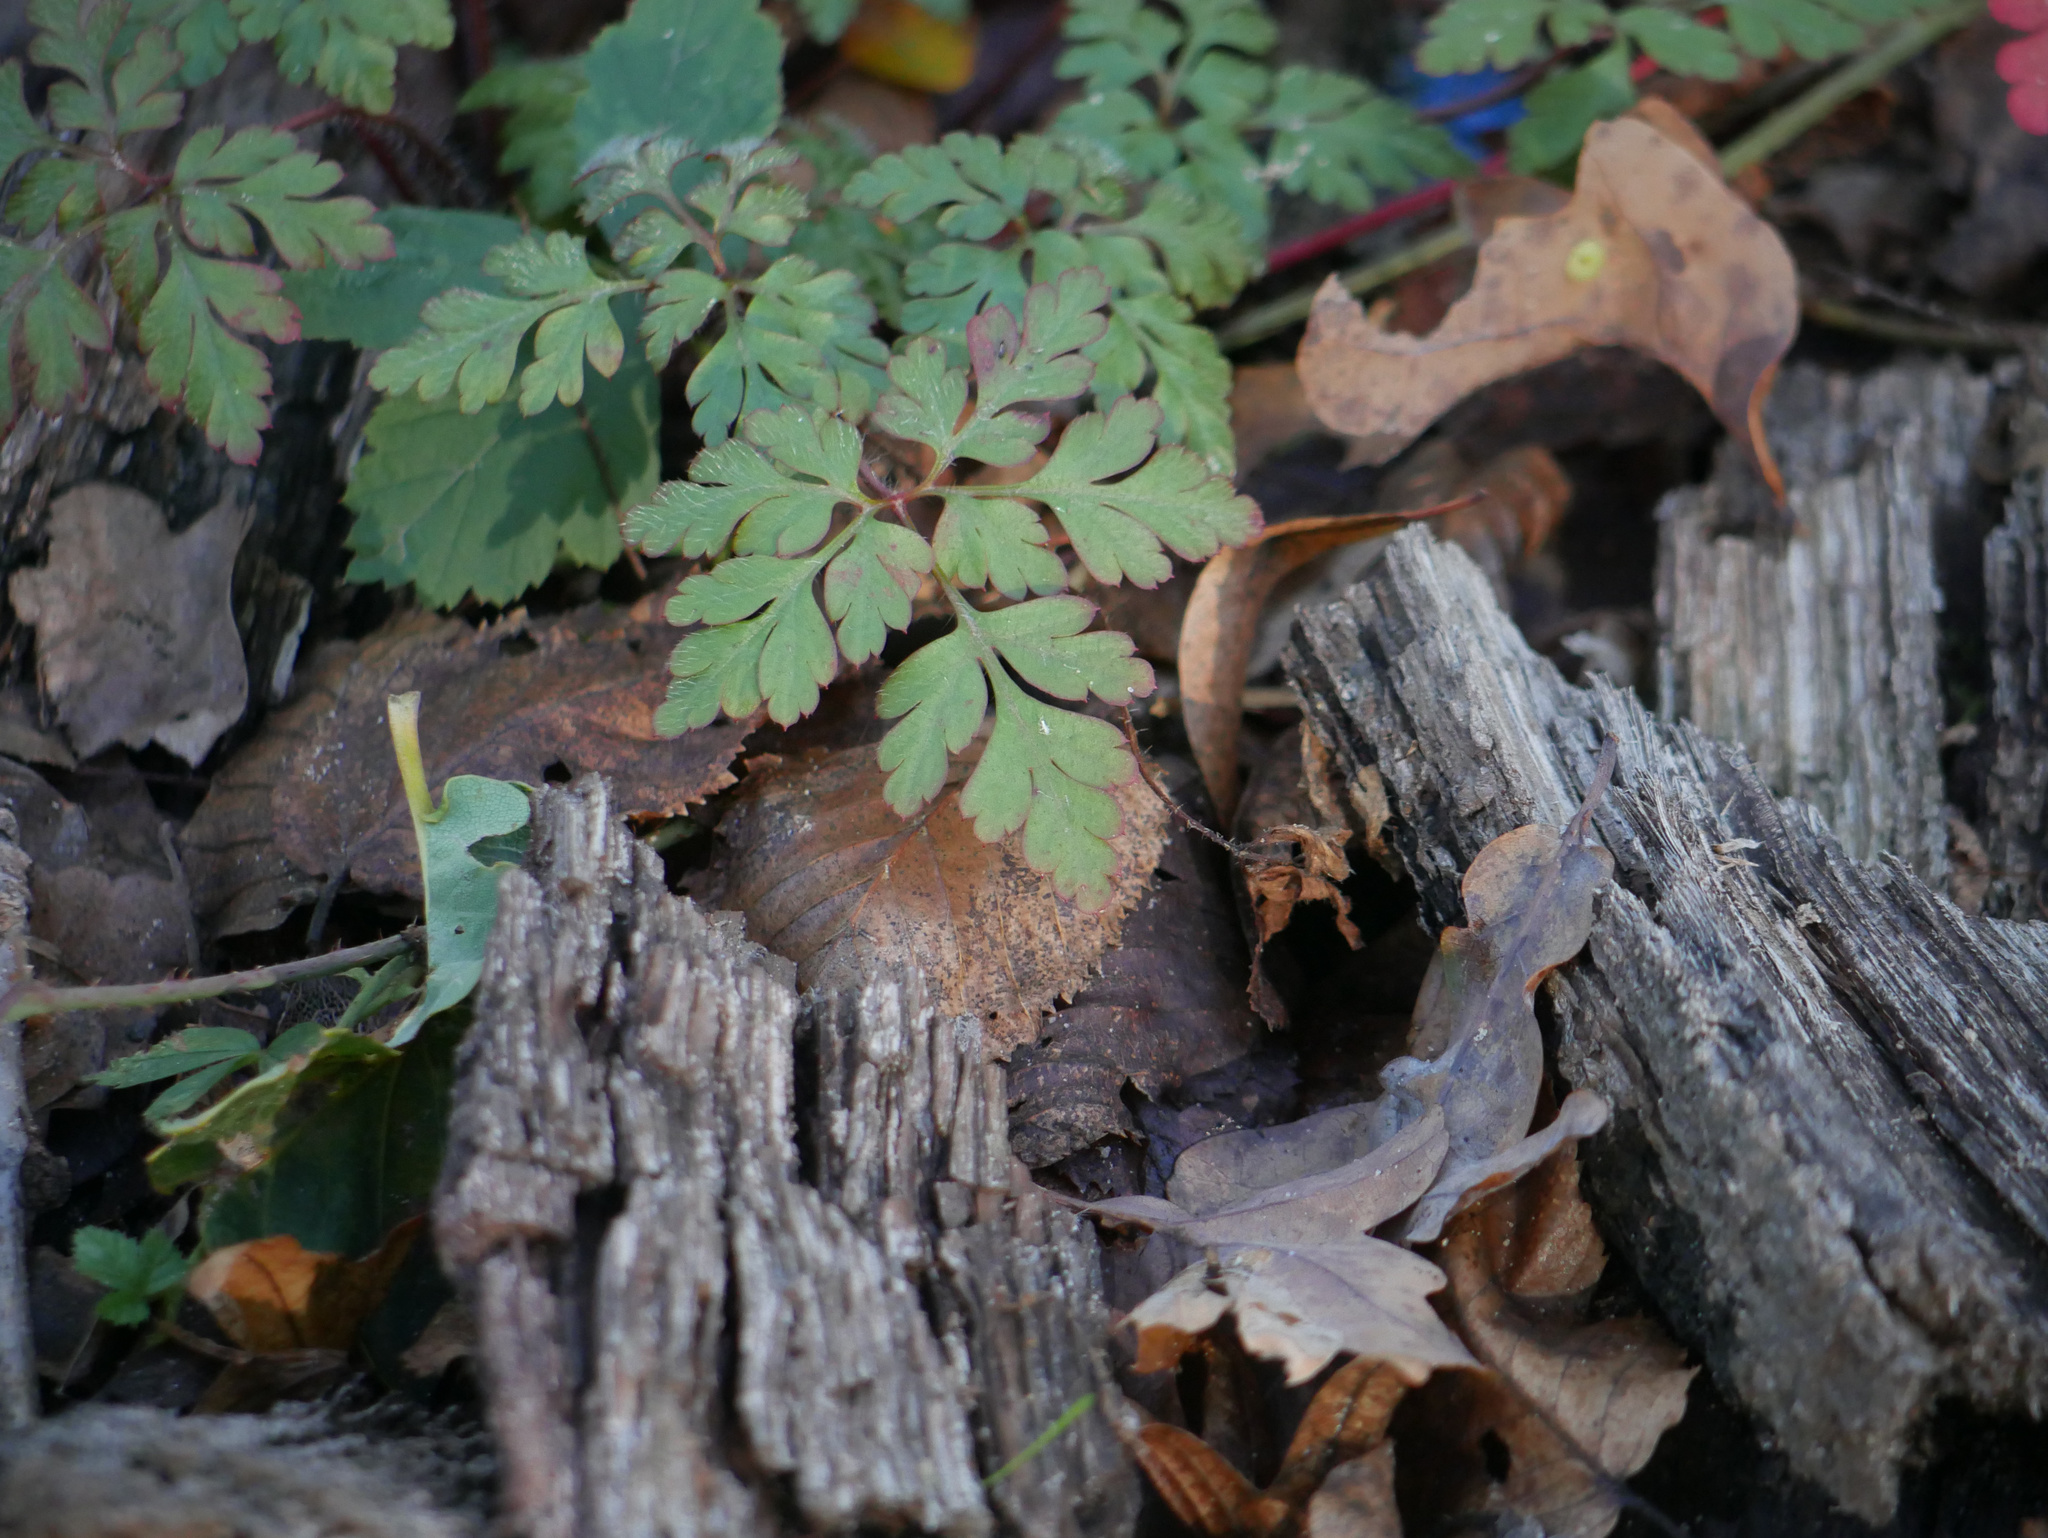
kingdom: Plantae
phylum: Tracheophyta
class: Magnoliopsida
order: Geraniales
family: Geraniaceae
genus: Geranium
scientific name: Geranium robertianum
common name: Herb-robert
